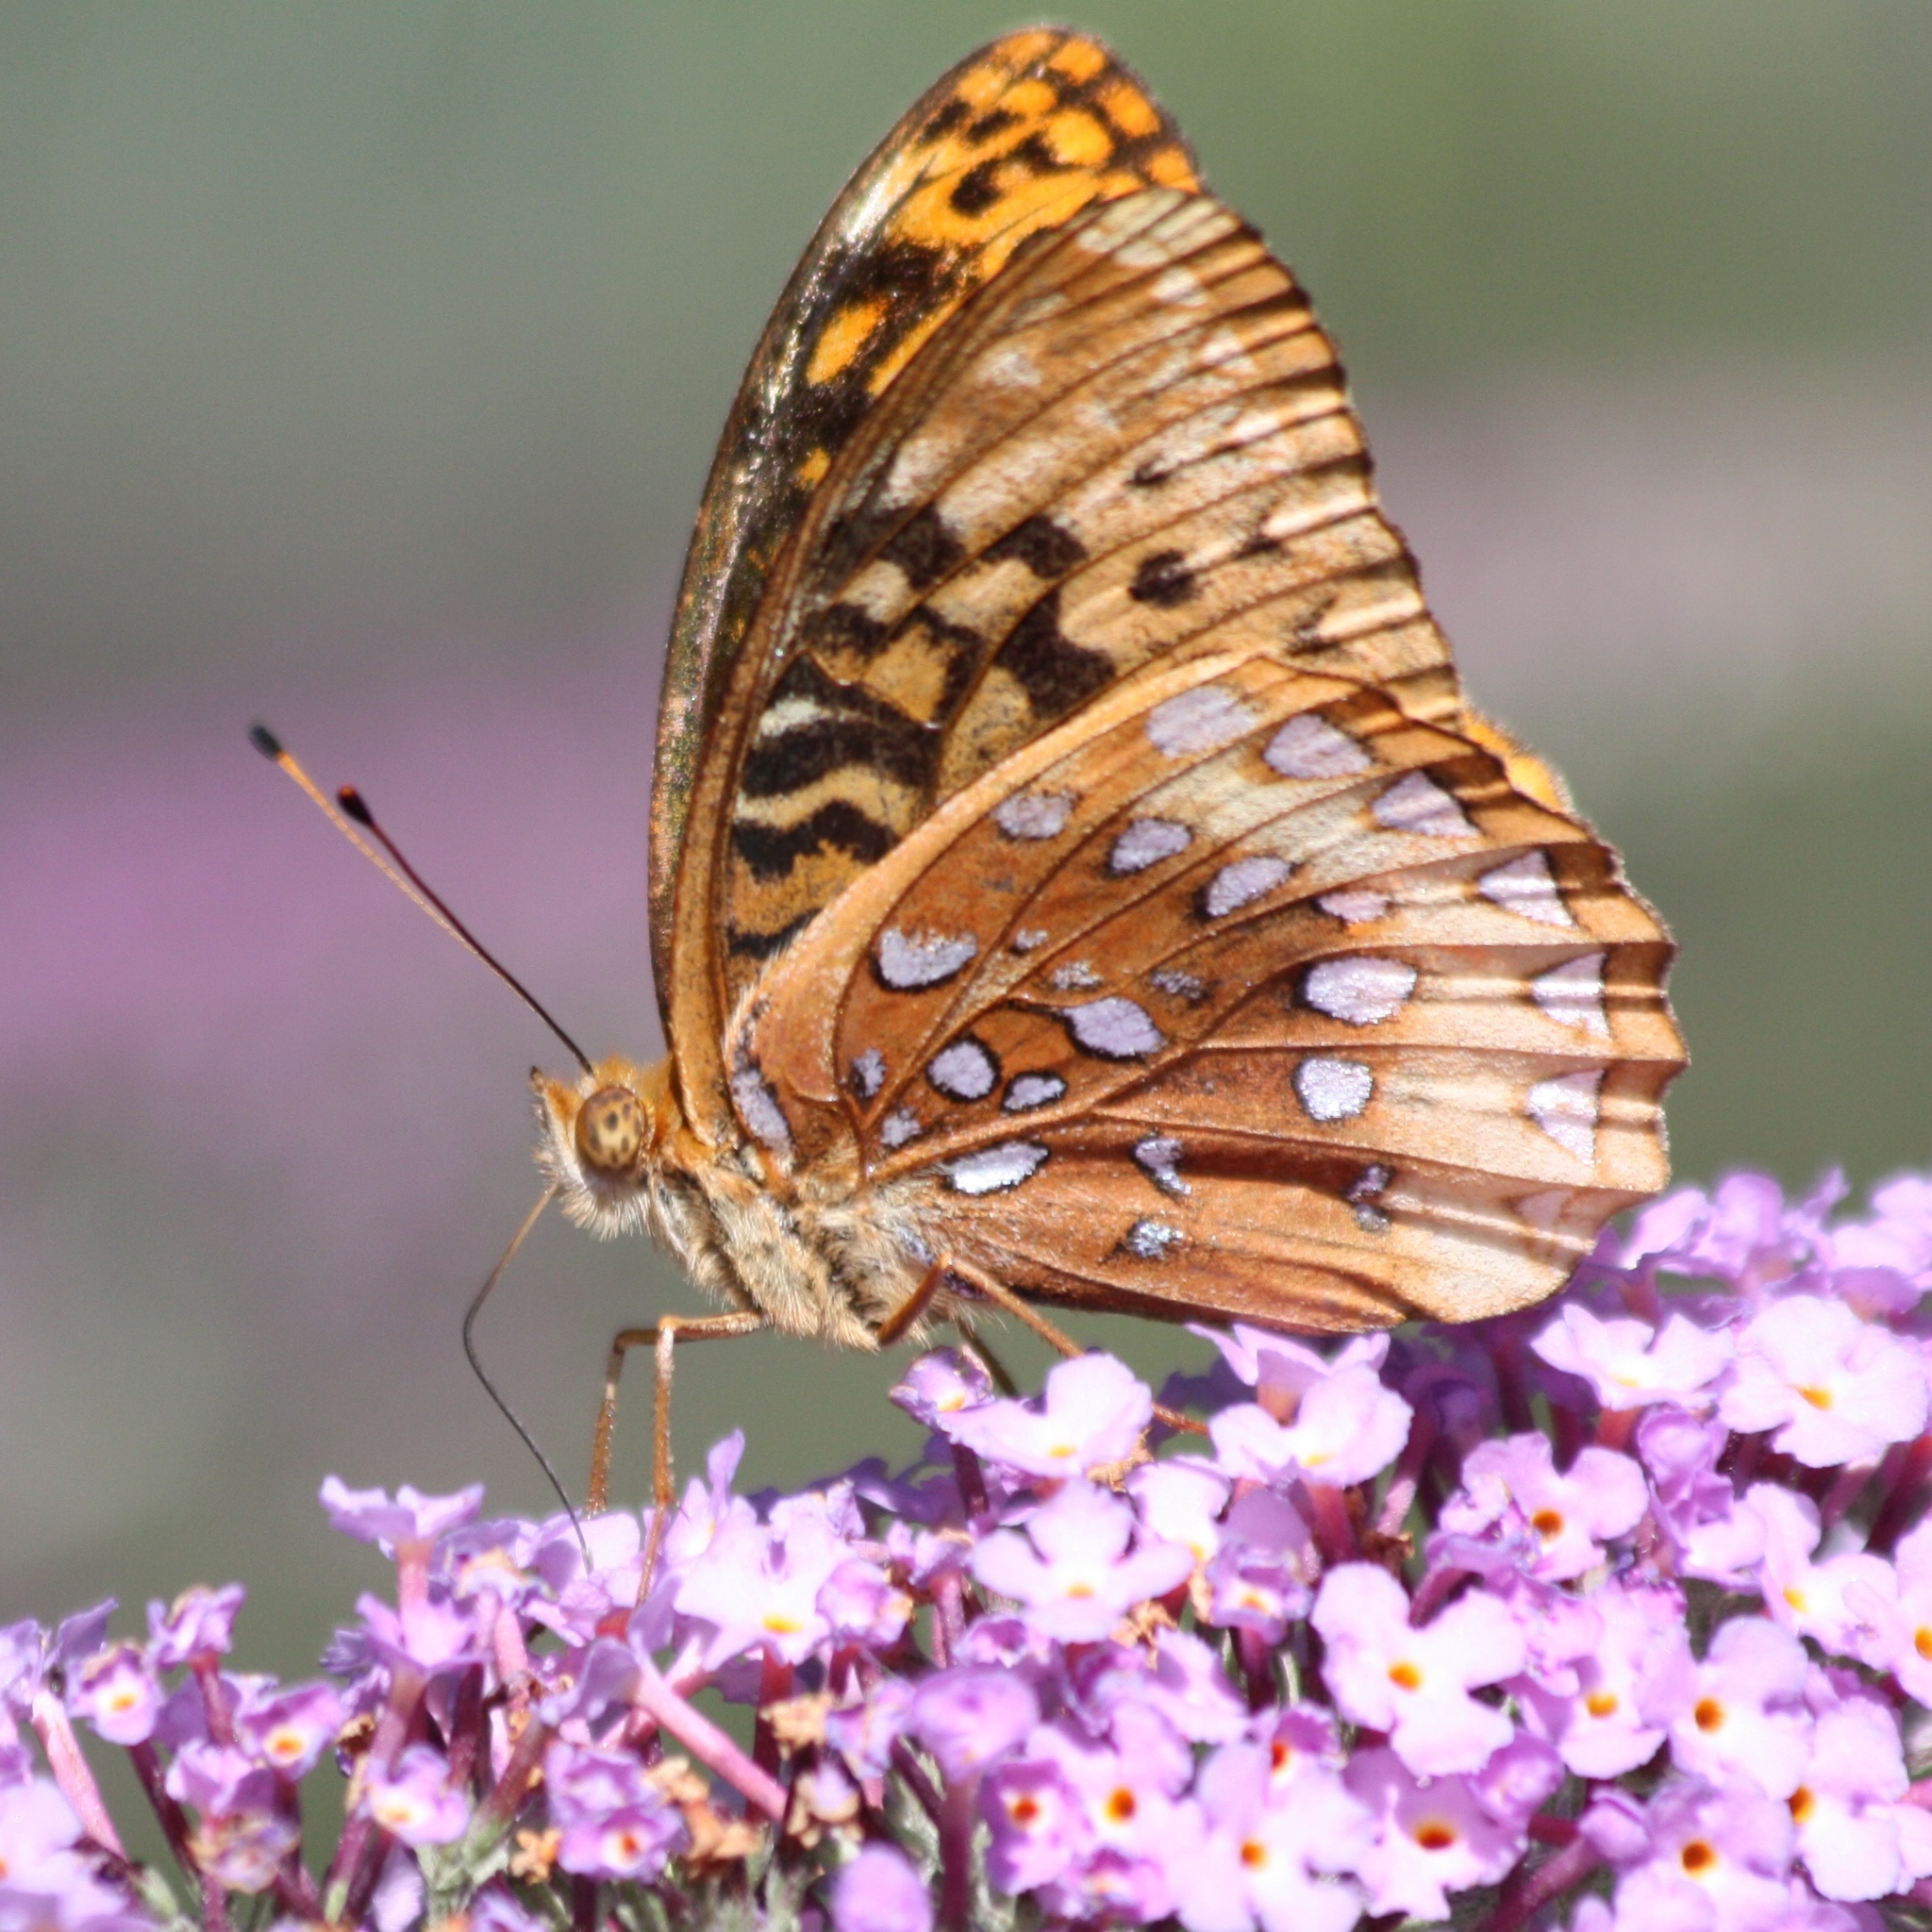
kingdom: Animalia
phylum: Arthropoda
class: Insecta
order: Lepidoptera
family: Nymphalidae
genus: Speyeria
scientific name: Speyeria cybele
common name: Great spangled fritillary
